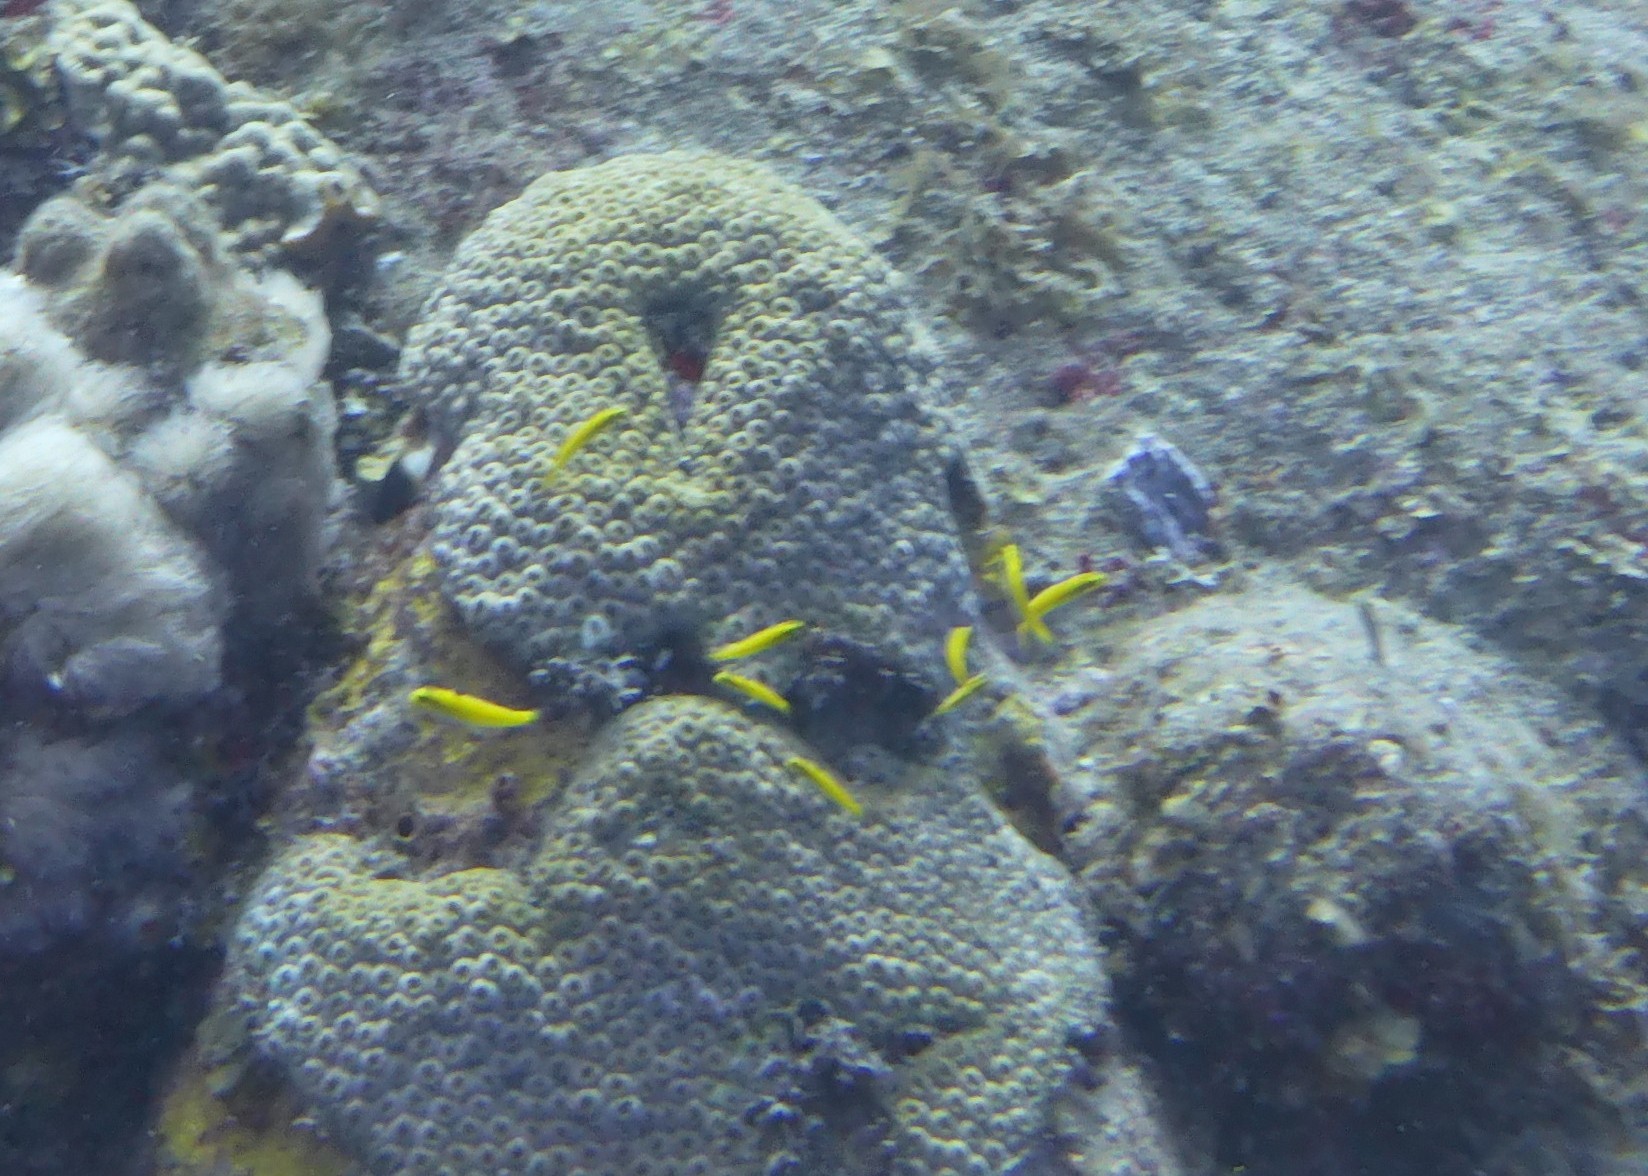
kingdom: Animalia
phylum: Chordata
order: Perciformes
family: Labridae
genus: Thalassoma
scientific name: Thalassoma bifasciatum
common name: Bluehead wrasse
